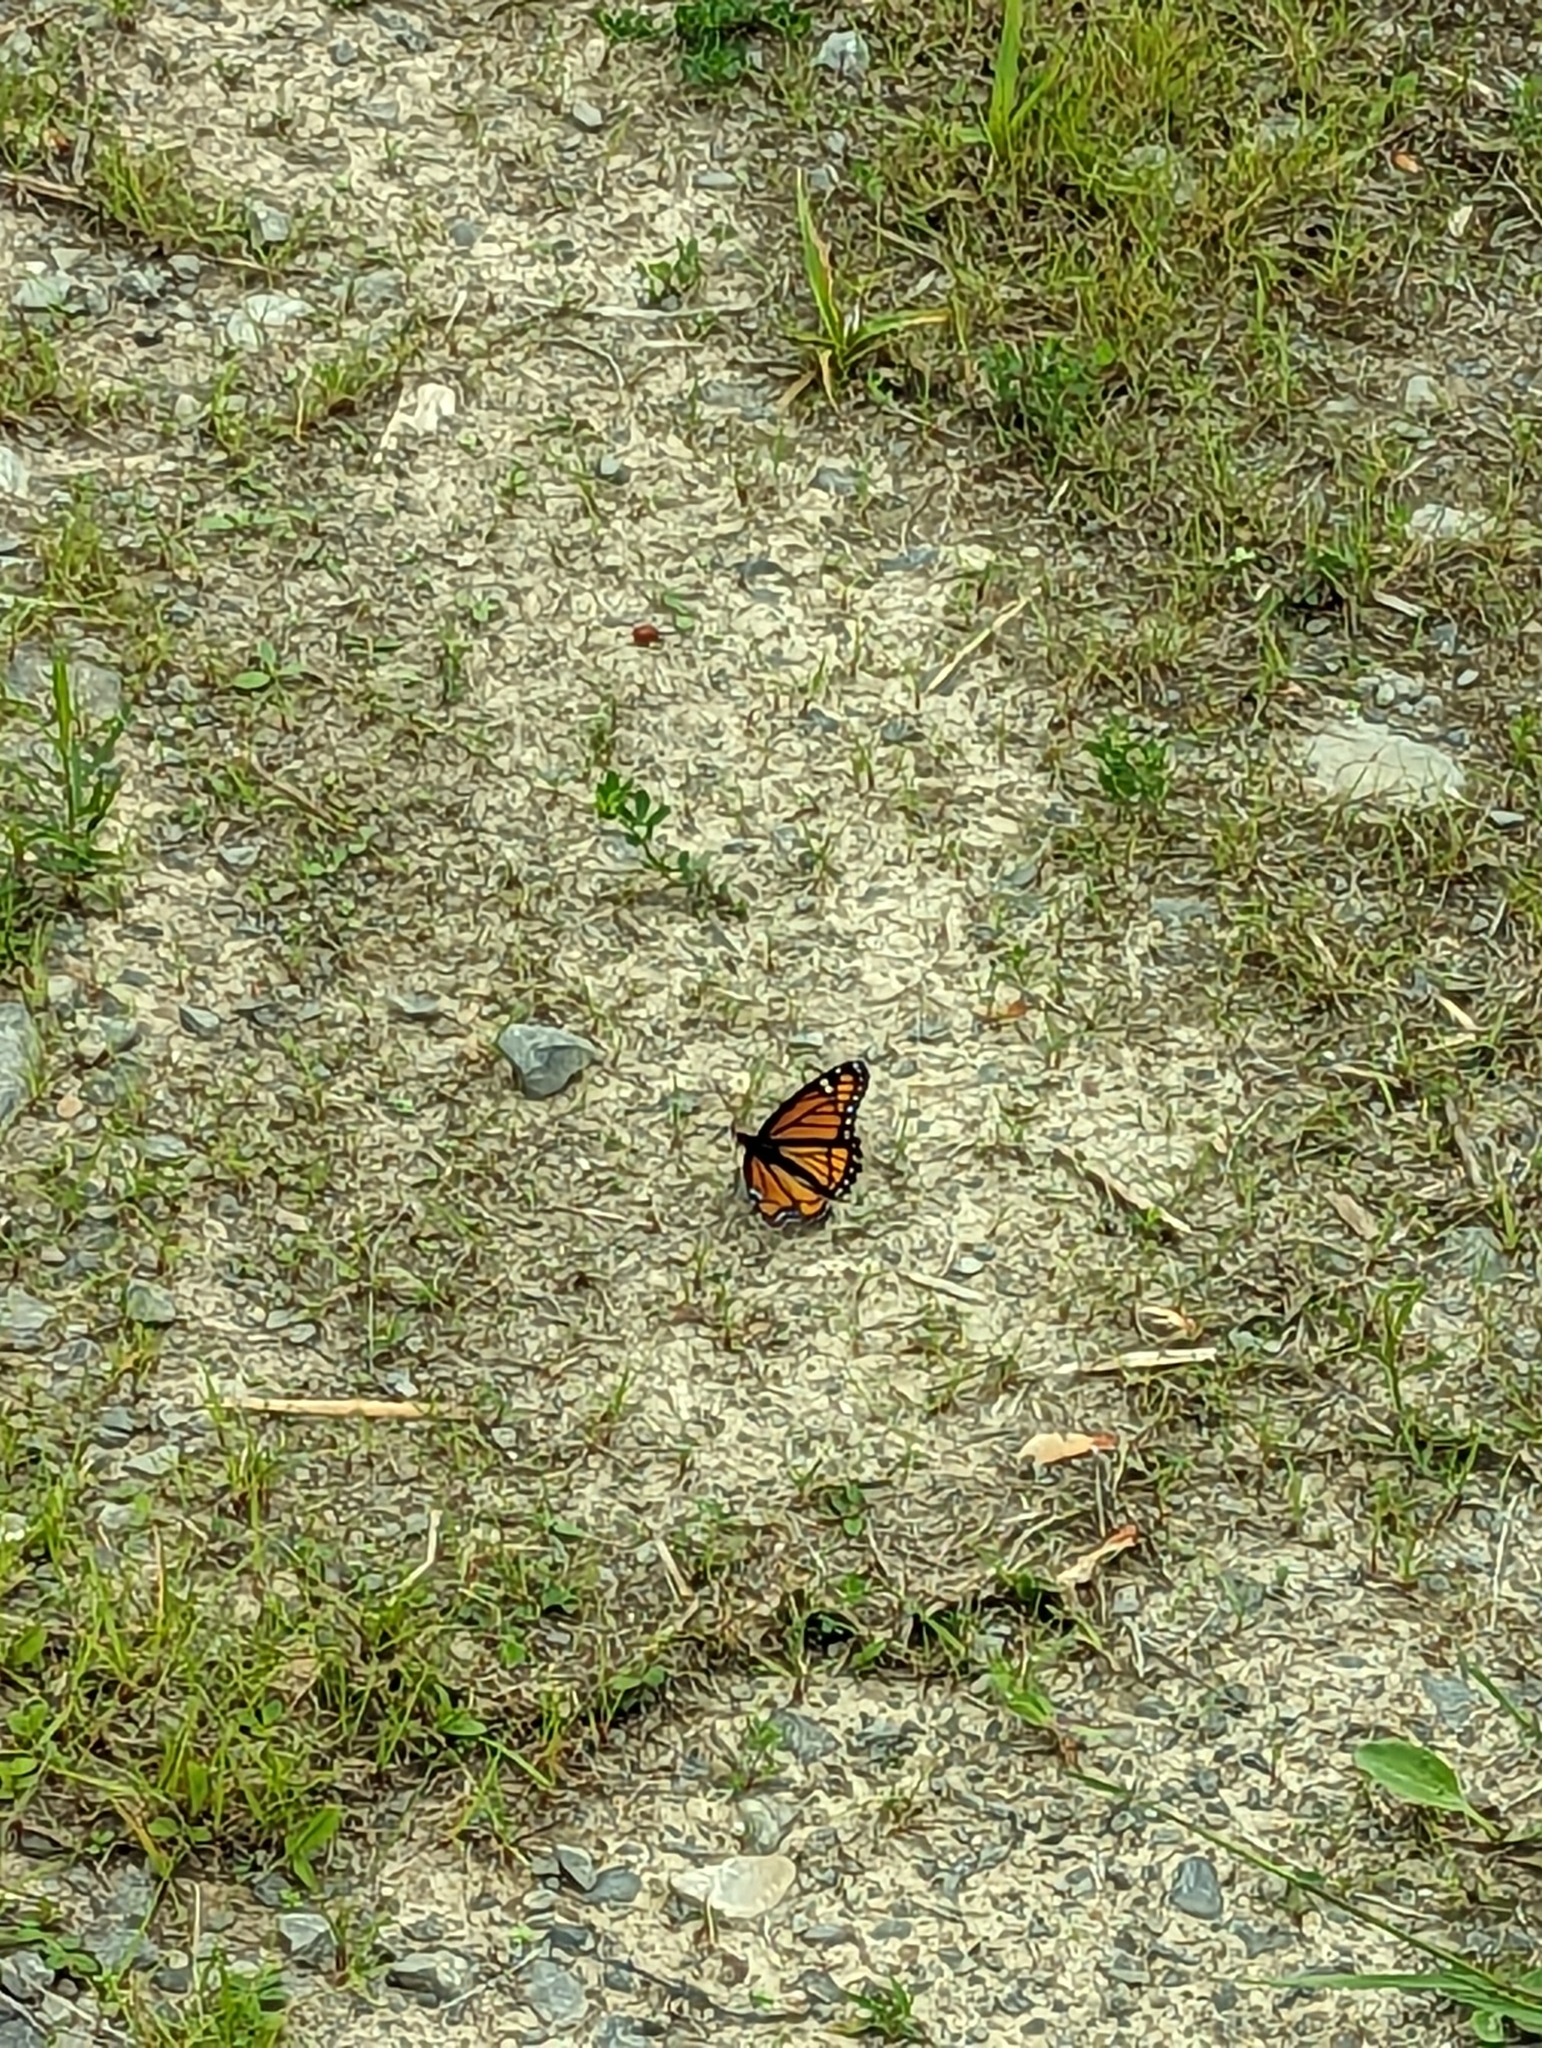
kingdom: Animalia
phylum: Arthropoda
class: Insecta
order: Lepidoptera
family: Nymphalidae
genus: Limenitis
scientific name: Limenitis archippus
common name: Viceroy
